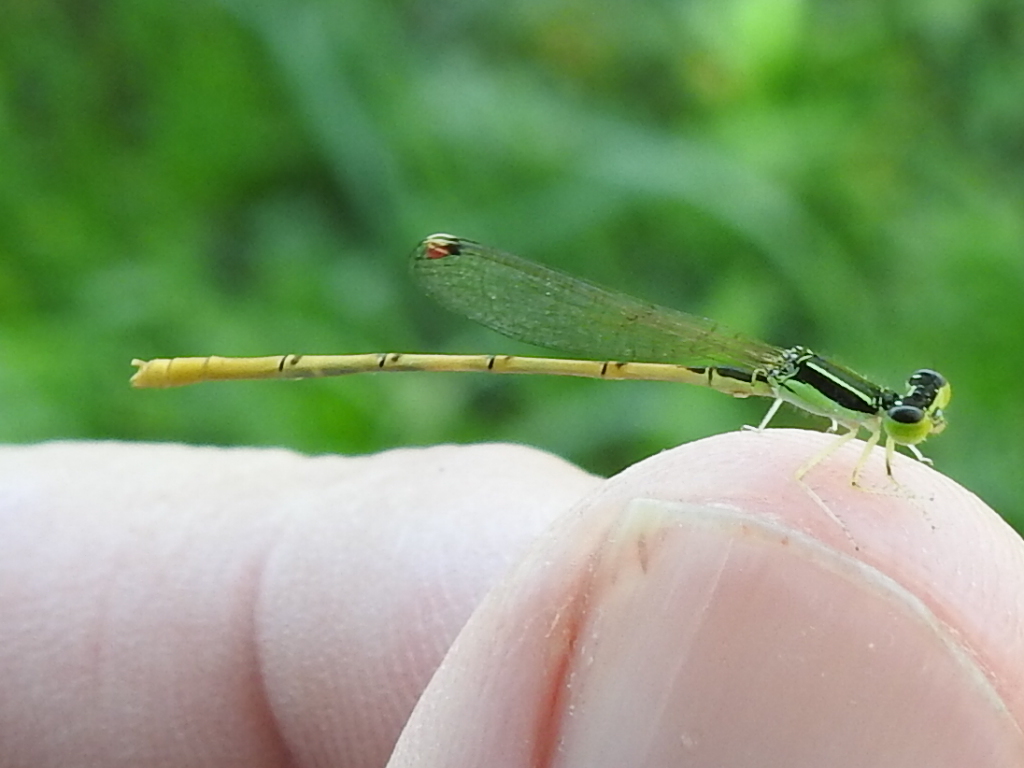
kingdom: Animalia
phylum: Arthropoda
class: Insecta
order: Odonata
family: Coenagrionidae
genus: Ischnura
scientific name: Ischnura hastata
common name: Citrine forktail
